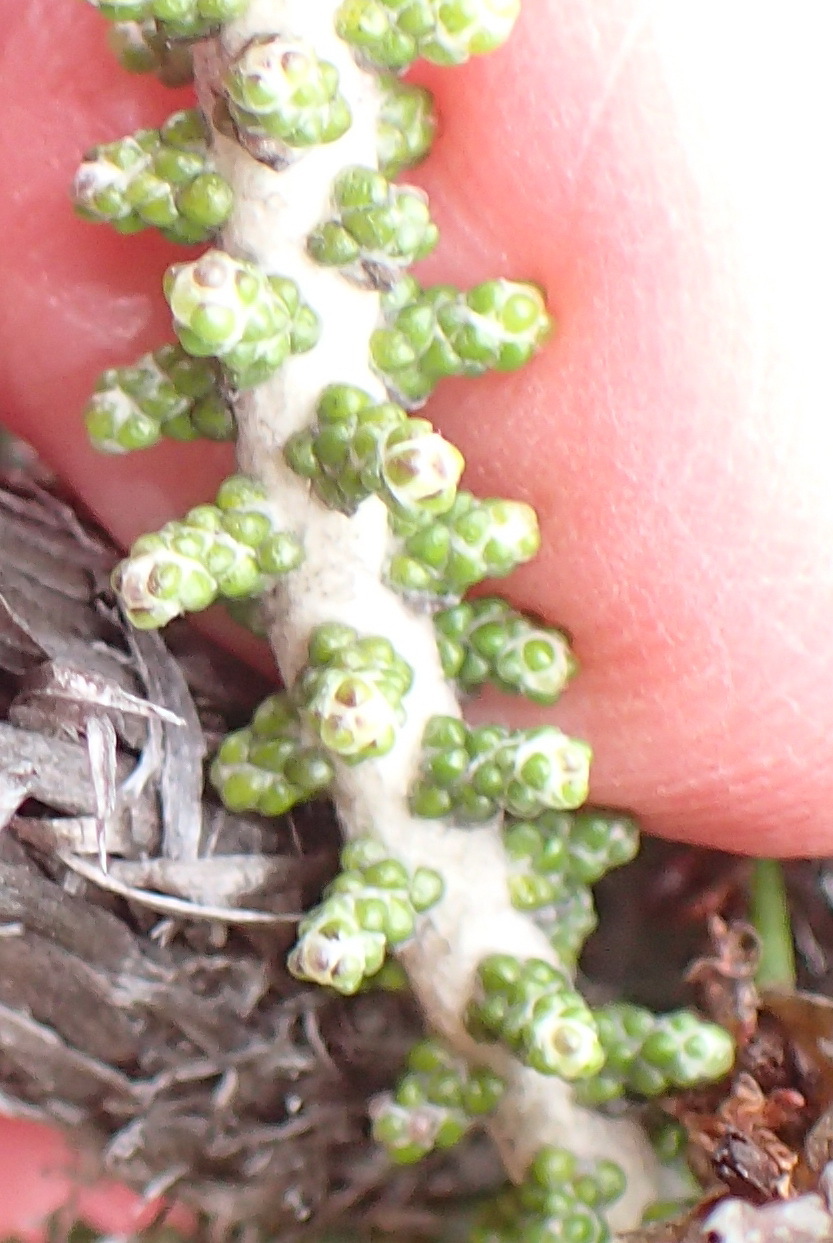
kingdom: Plantae
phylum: Tracheophyta
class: Magnoliopsida
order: Asterales
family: Asteraceae
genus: Phaenocoma
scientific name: Phaenocoma prolifera
